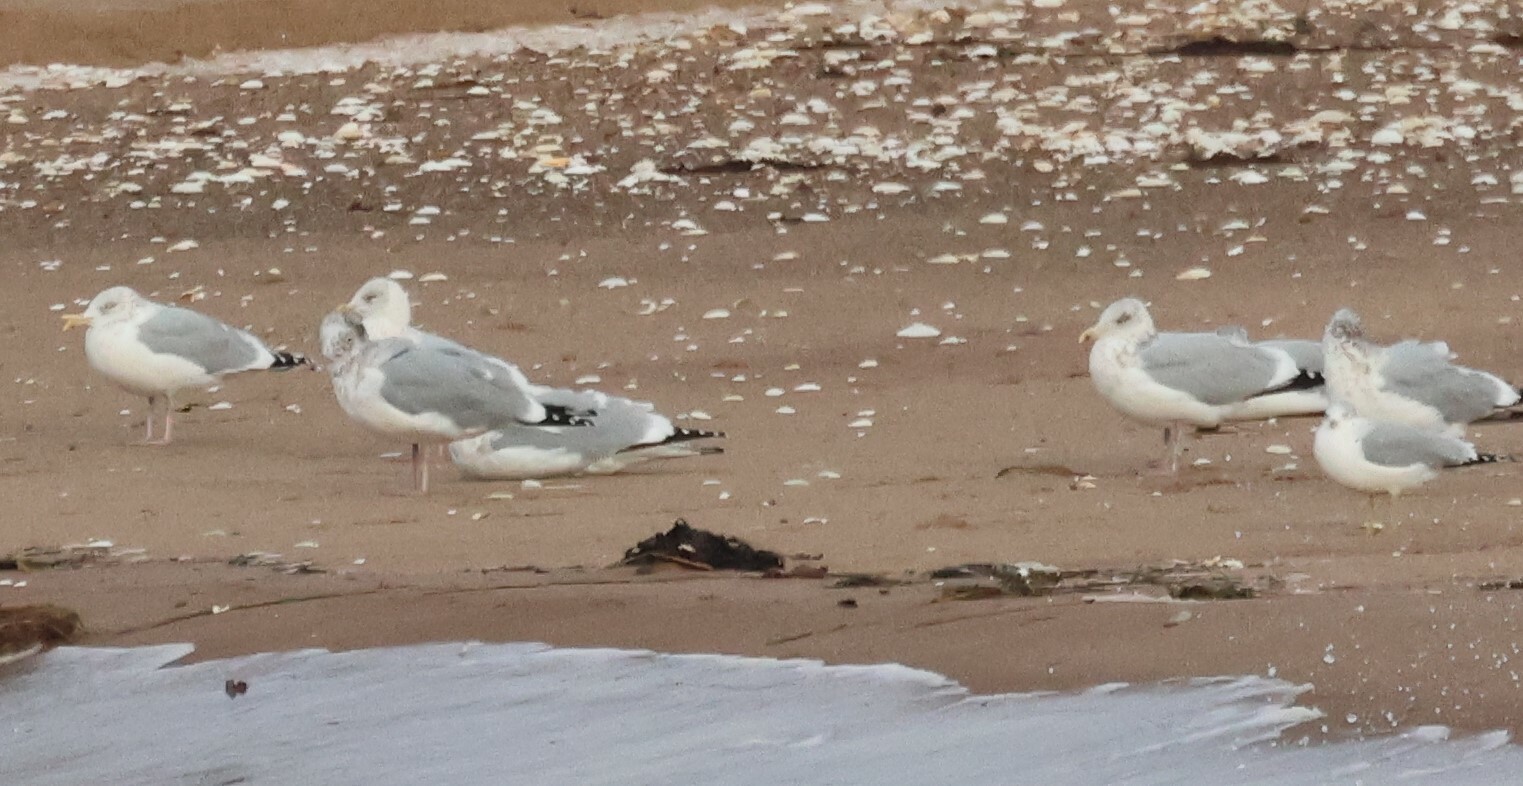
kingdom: Animalia
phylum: Chordata
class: Aves
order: Charadriiformes
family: Laridae
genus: Larus
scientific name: Larus argentatus
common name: Herring gull
